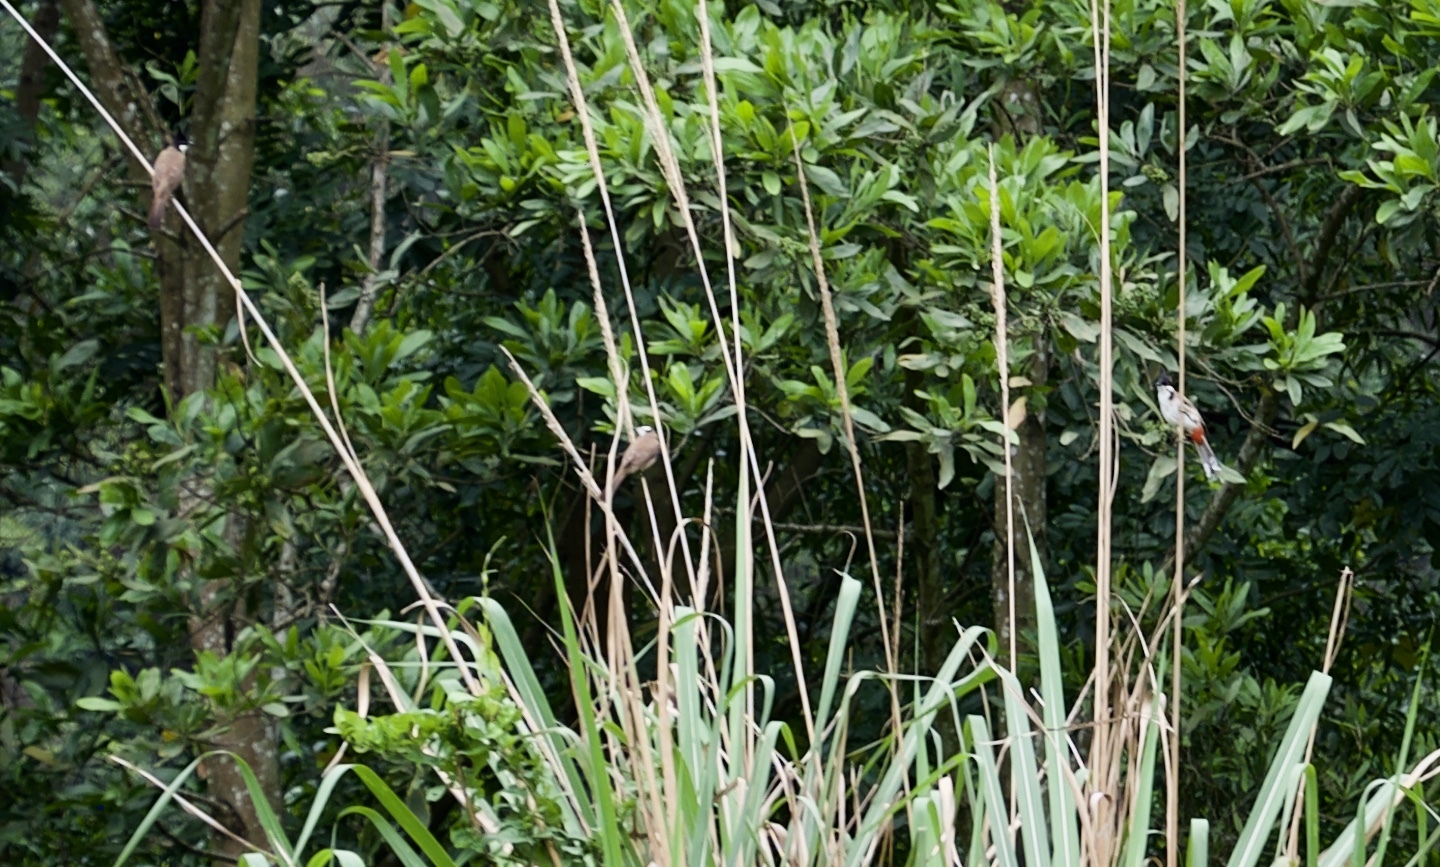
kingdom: Animalia
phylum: Chordata
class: Aves
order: Passeriformes
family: Pycnonotidae
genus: Pycnonotus
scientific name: Pycnonotus jocosus
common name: Red-whiskered bulbul
